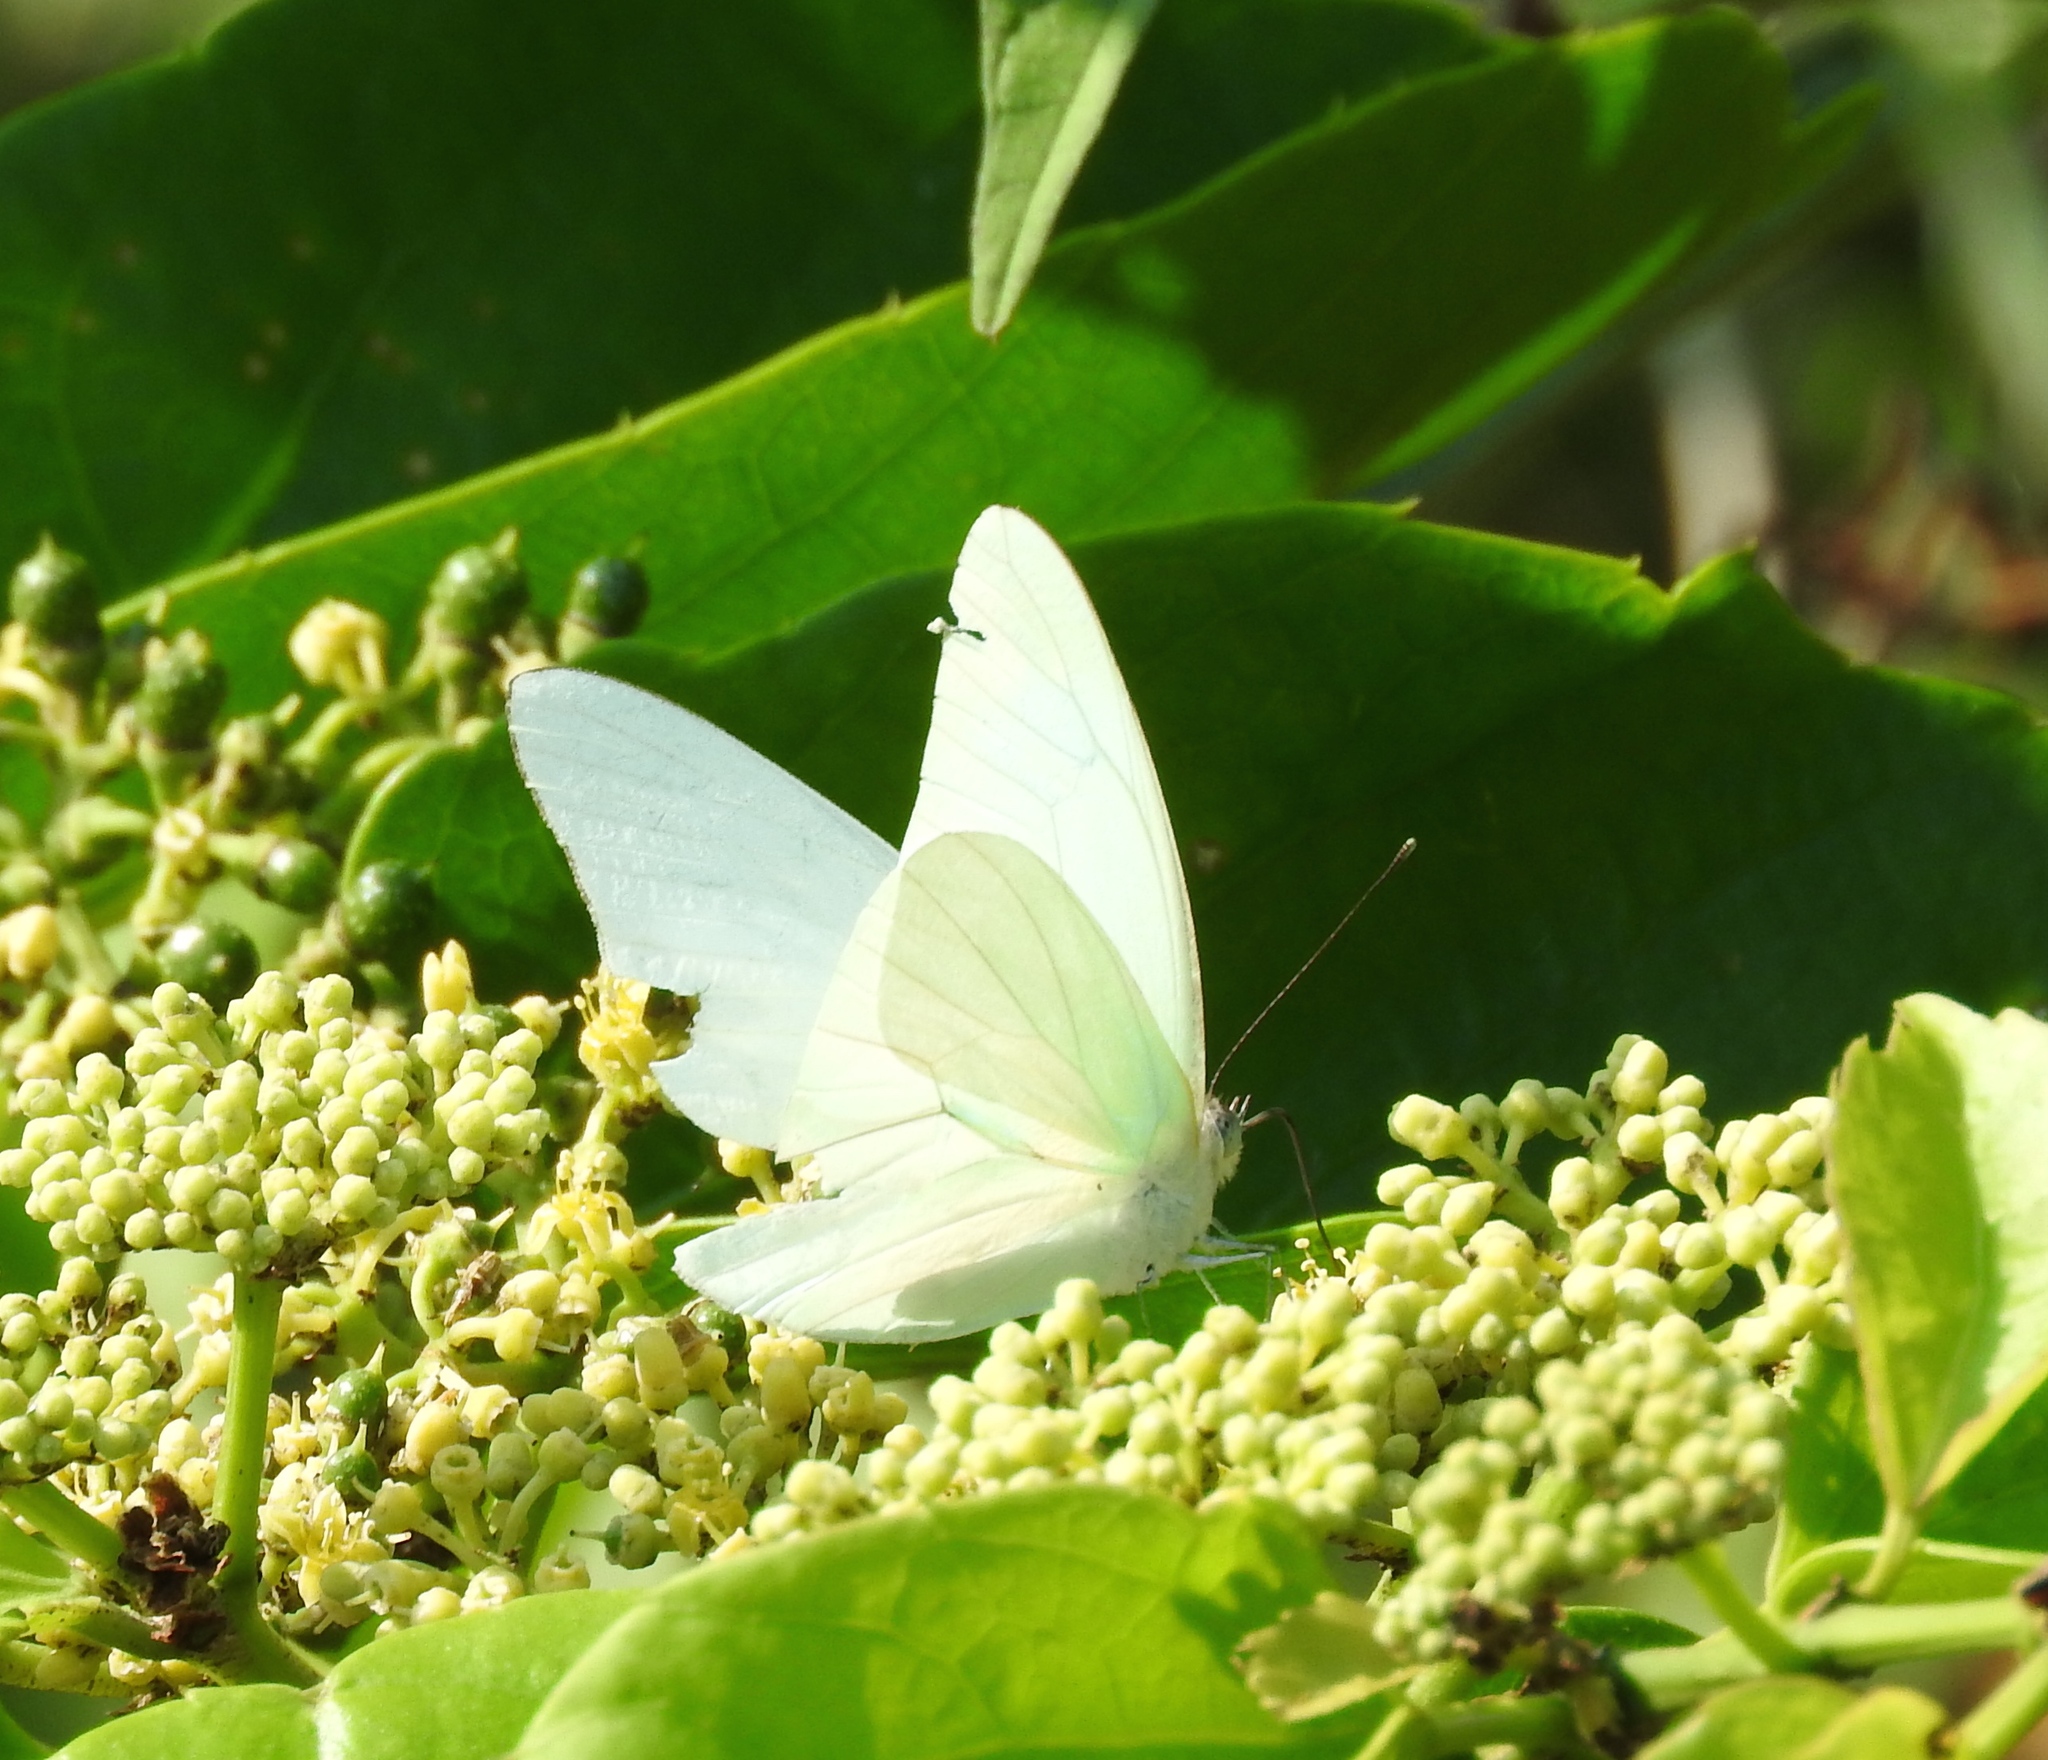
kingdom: Animalia
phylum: Arthropoda
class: Insecta
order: Lepidoptera
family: Pieridae
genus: Glutophrissa
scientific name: Glutophrissa drusilla
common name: Florida white
